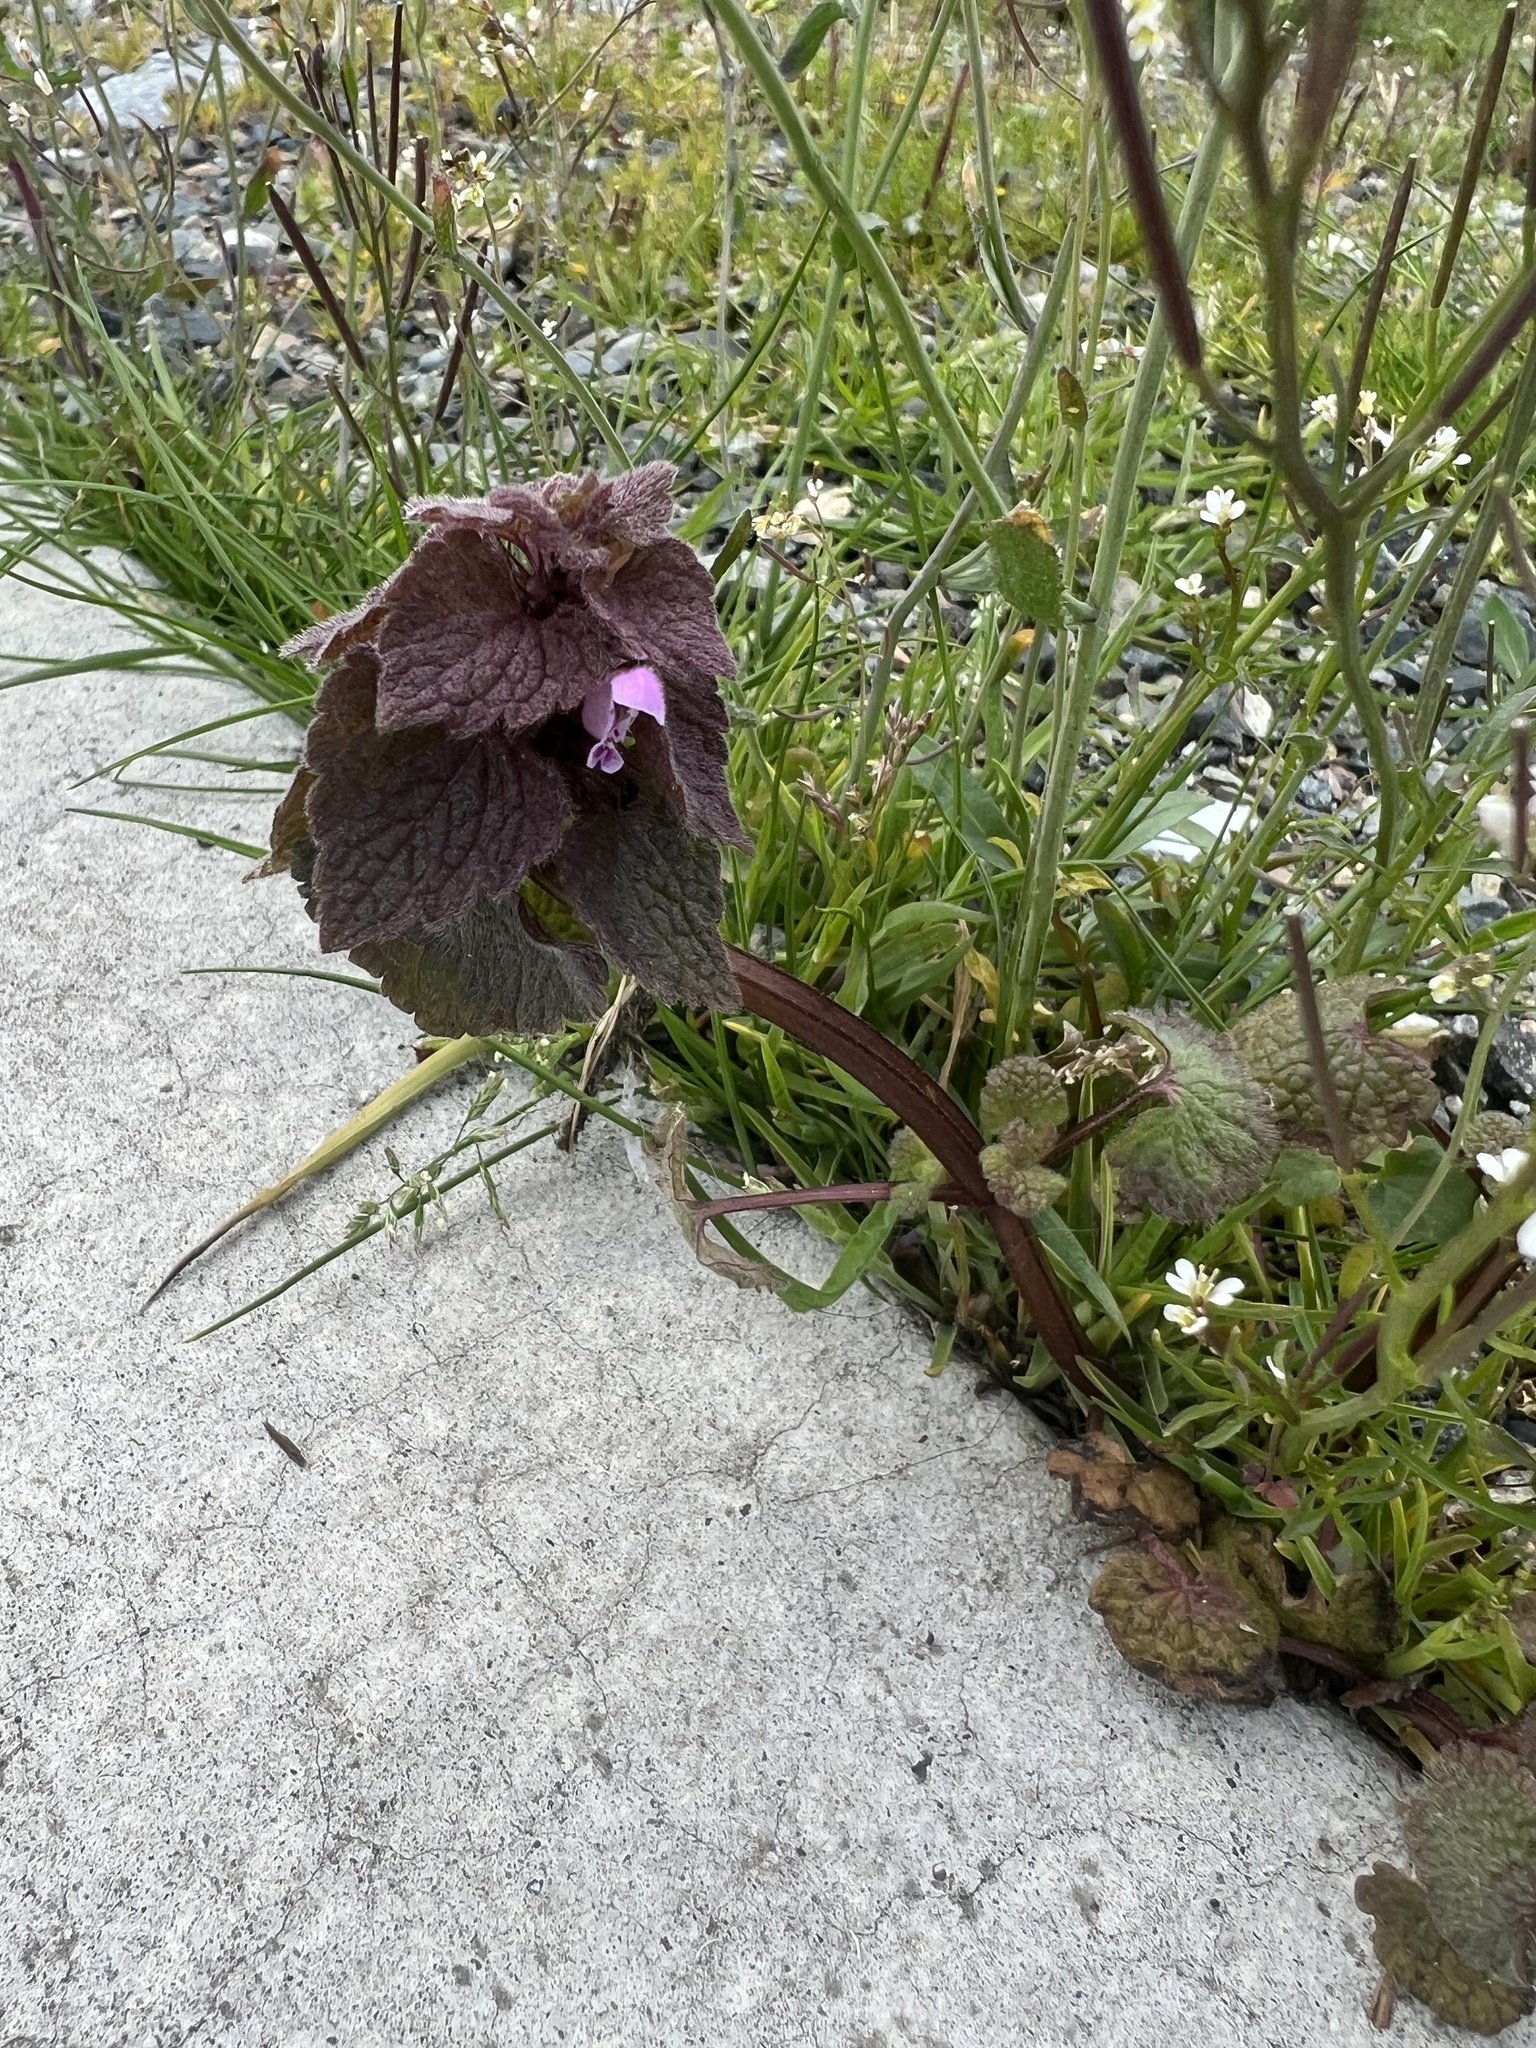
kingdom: Plantae
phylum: Tracheophyta
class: Magnoliopsida
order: Lamiales
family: Lamiaceae
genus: Lamium
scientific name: Lamium purpureum
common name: Red dead-nettle
